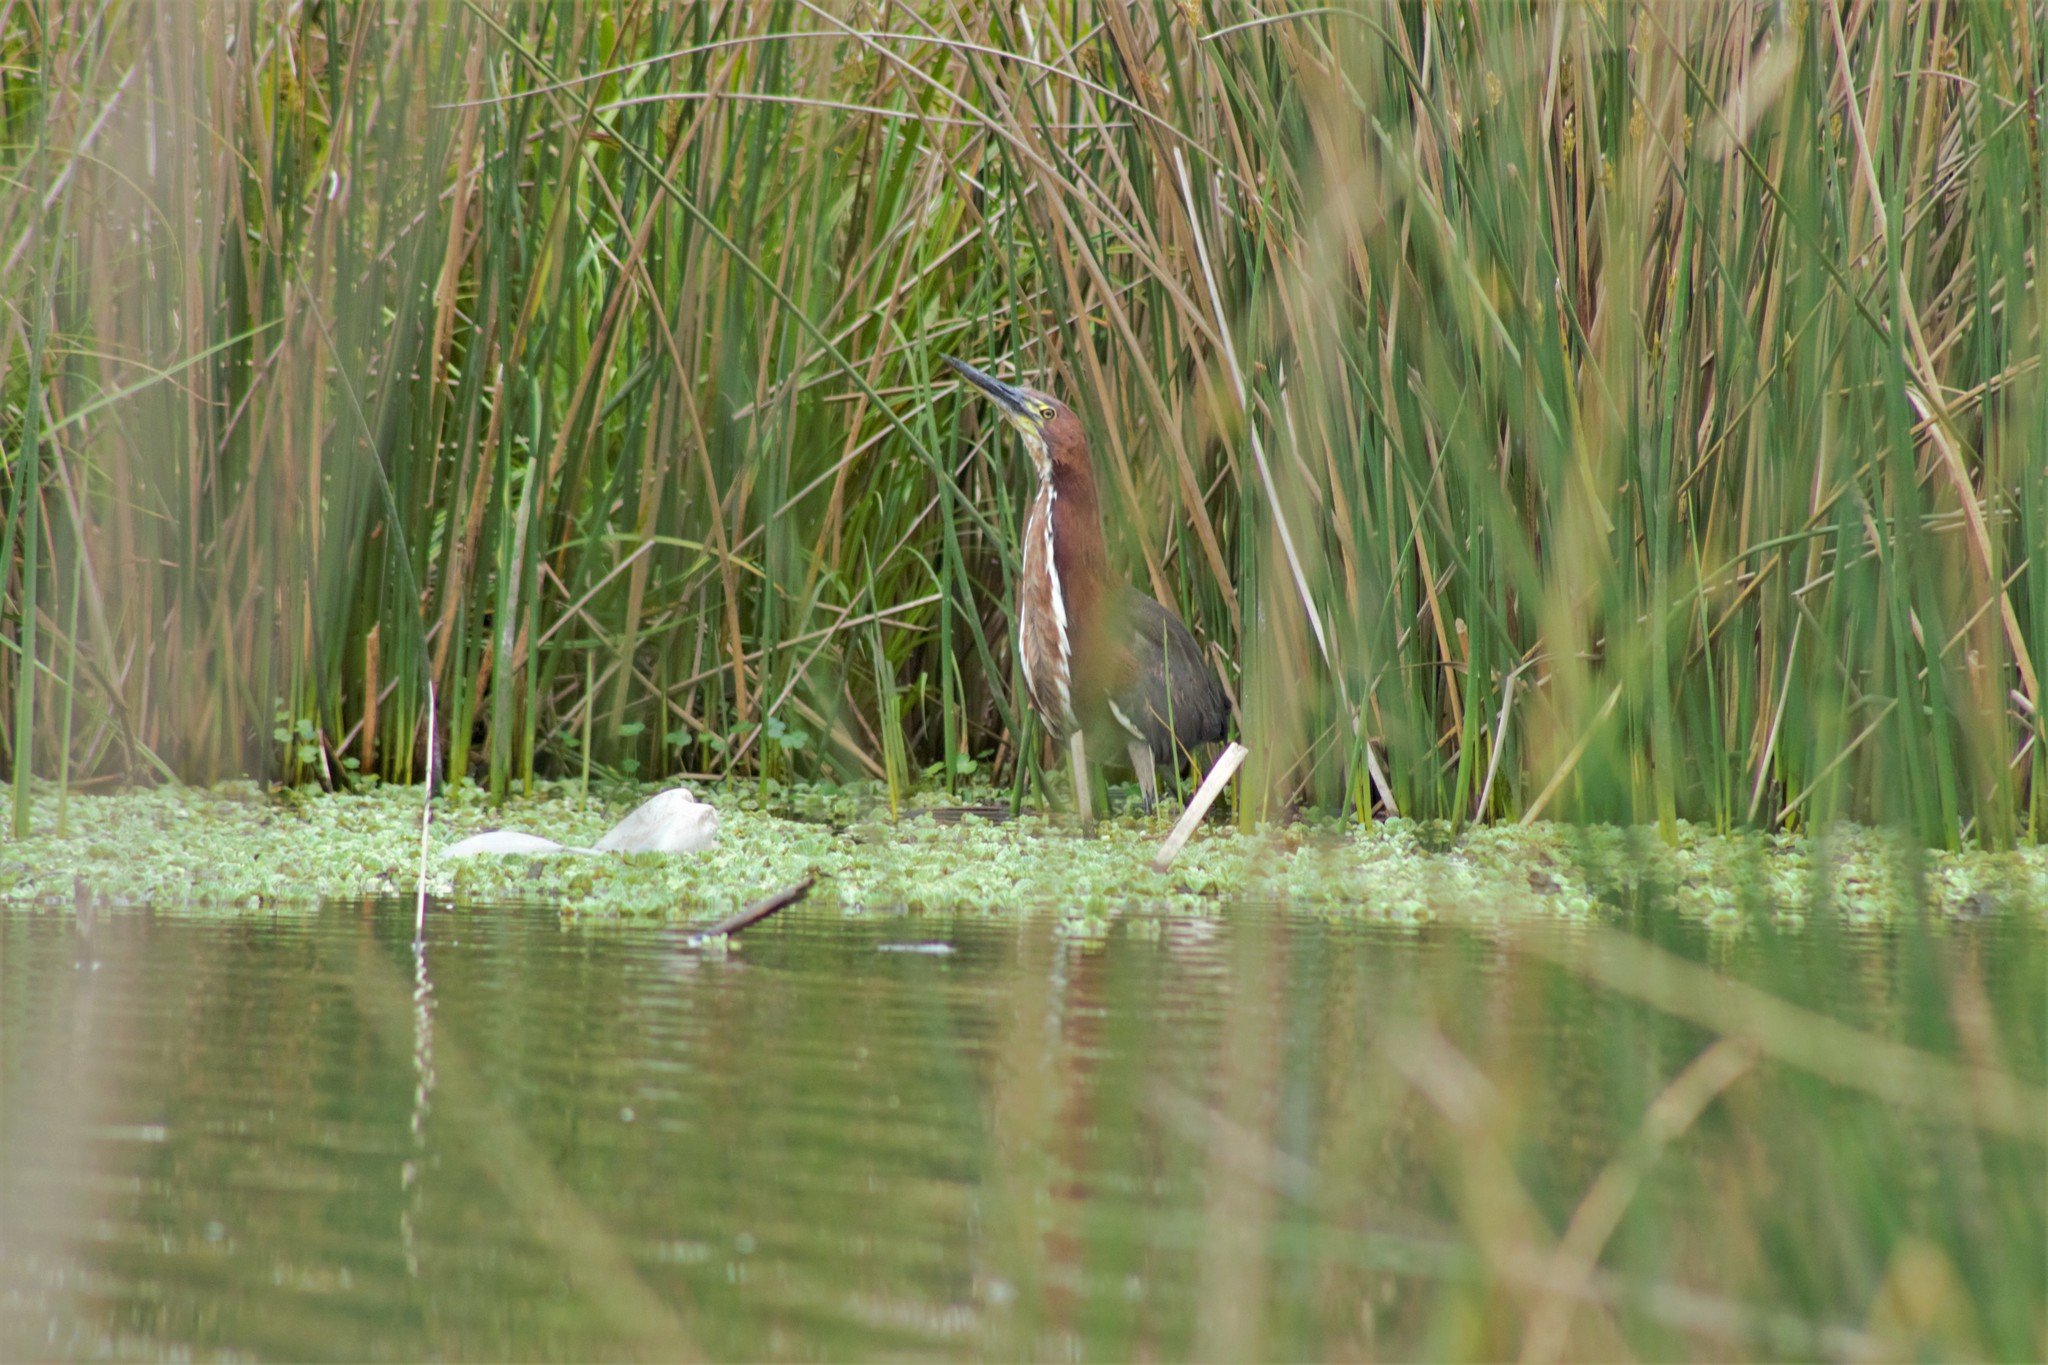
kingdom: Animalia
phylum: Chordata
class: Aves
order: Pelecaniformes
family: Ardeidae
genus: Tigrisoma
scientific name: Tigrisoma lineatum
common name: Rufescent tiger-heron
